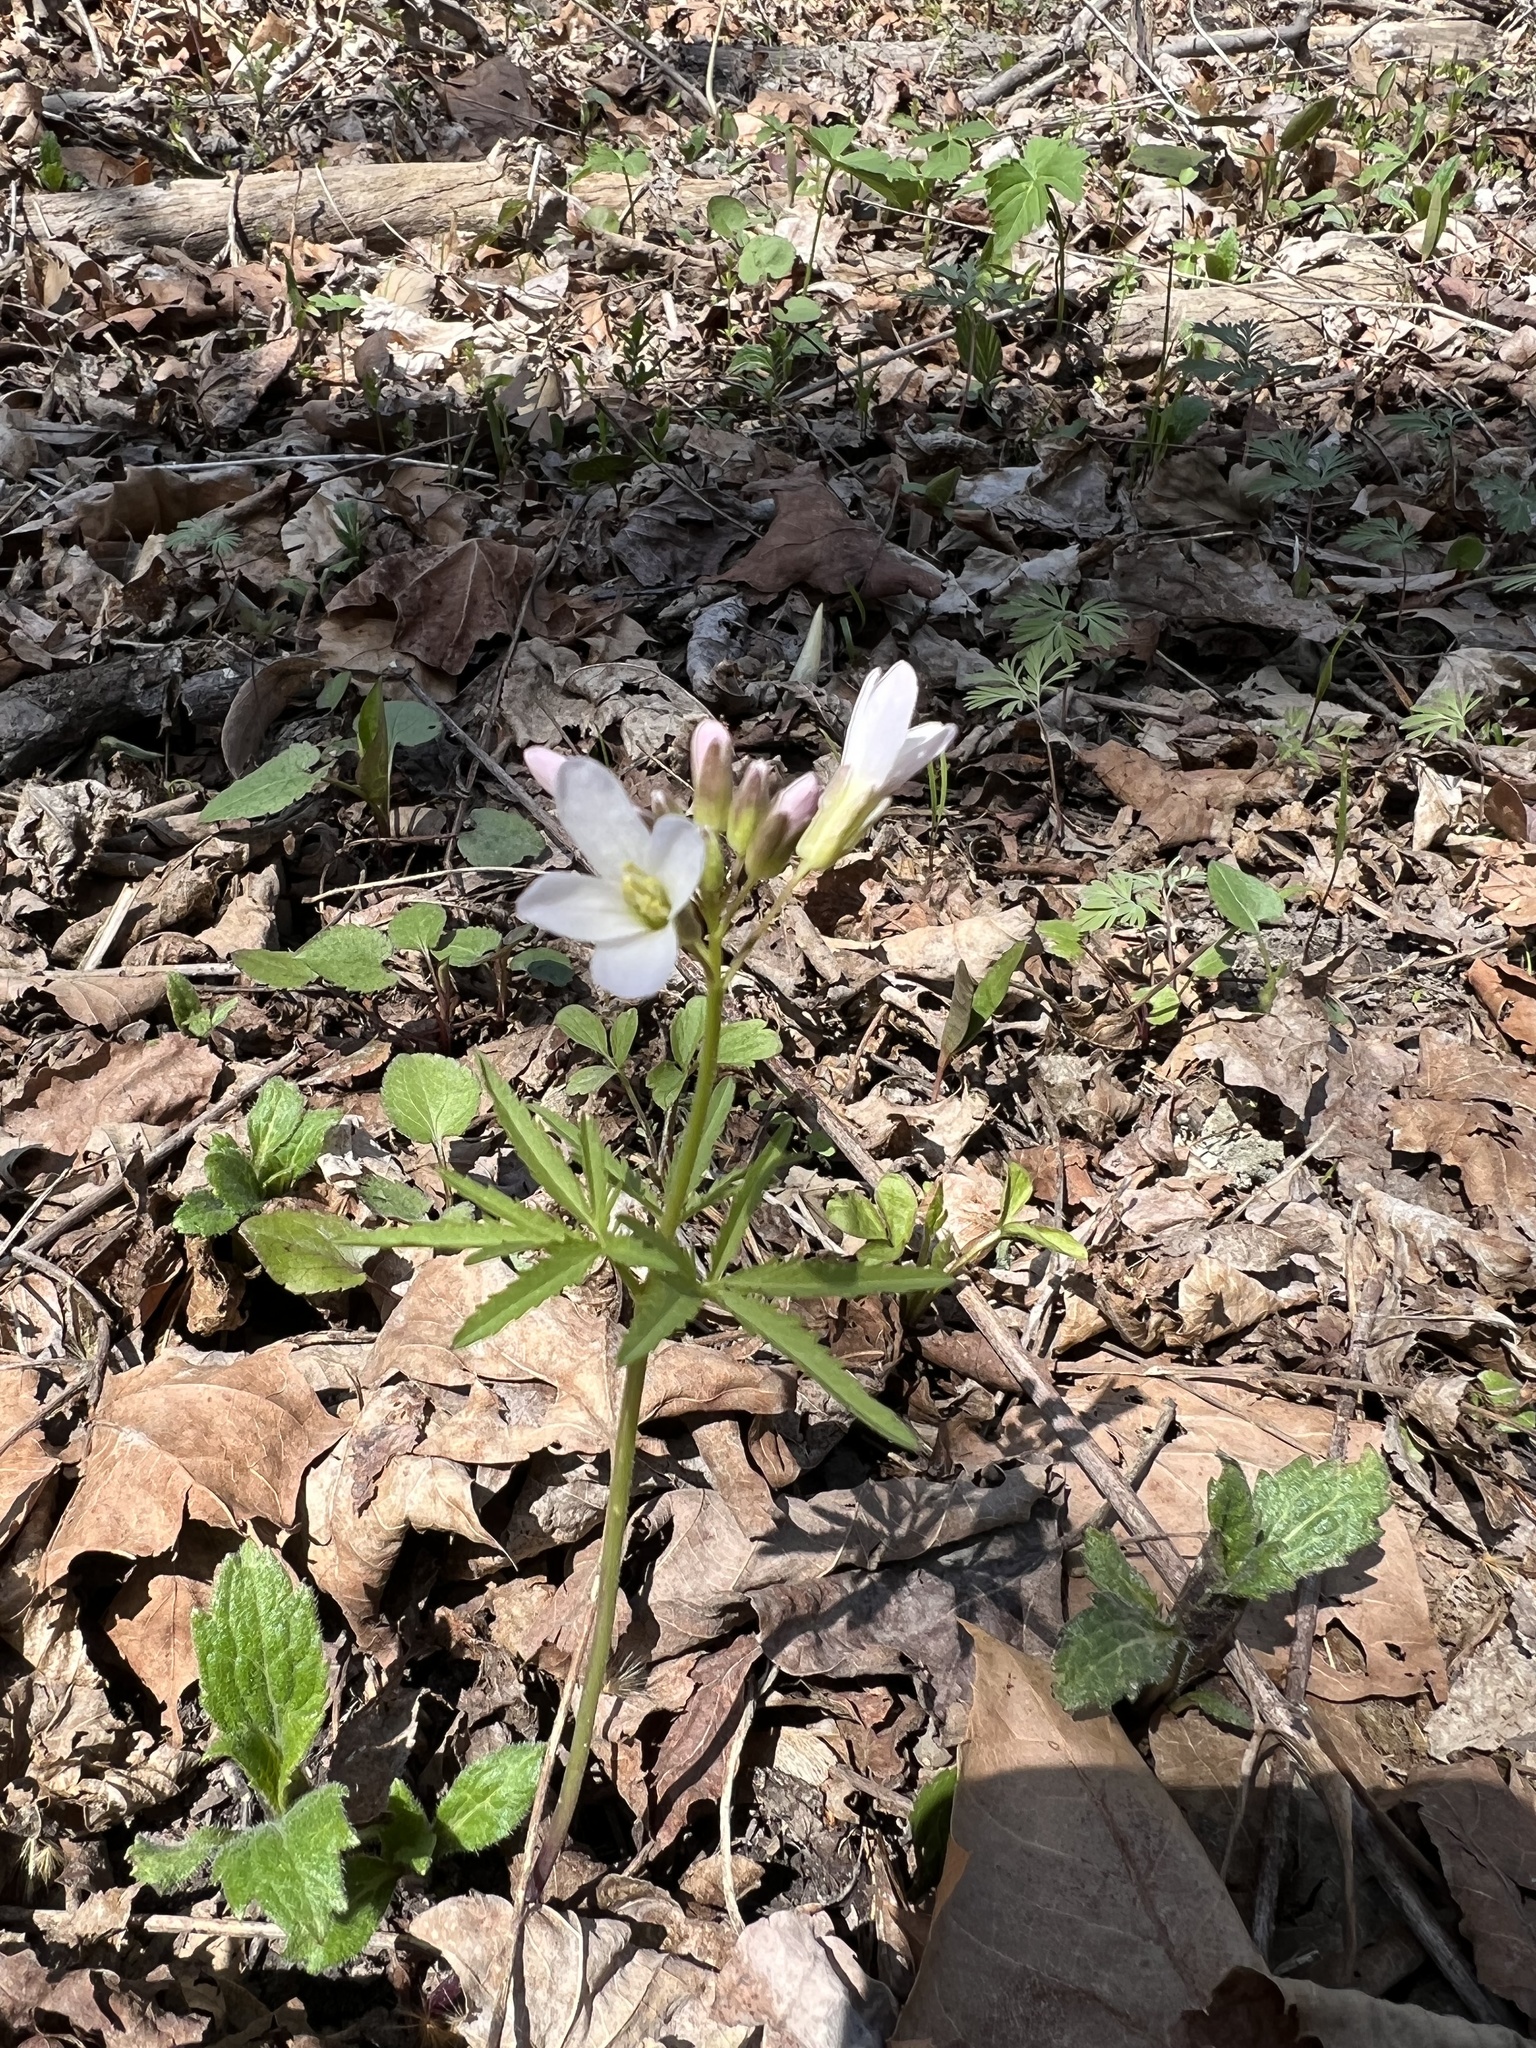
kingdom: Plantae
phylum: Tracheophyta
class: Magnoliopsida
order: Brassicales
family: Brassicaceae
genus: Cardamine
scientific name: Cardamine concatenata
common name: Cut-leaf toothcup
